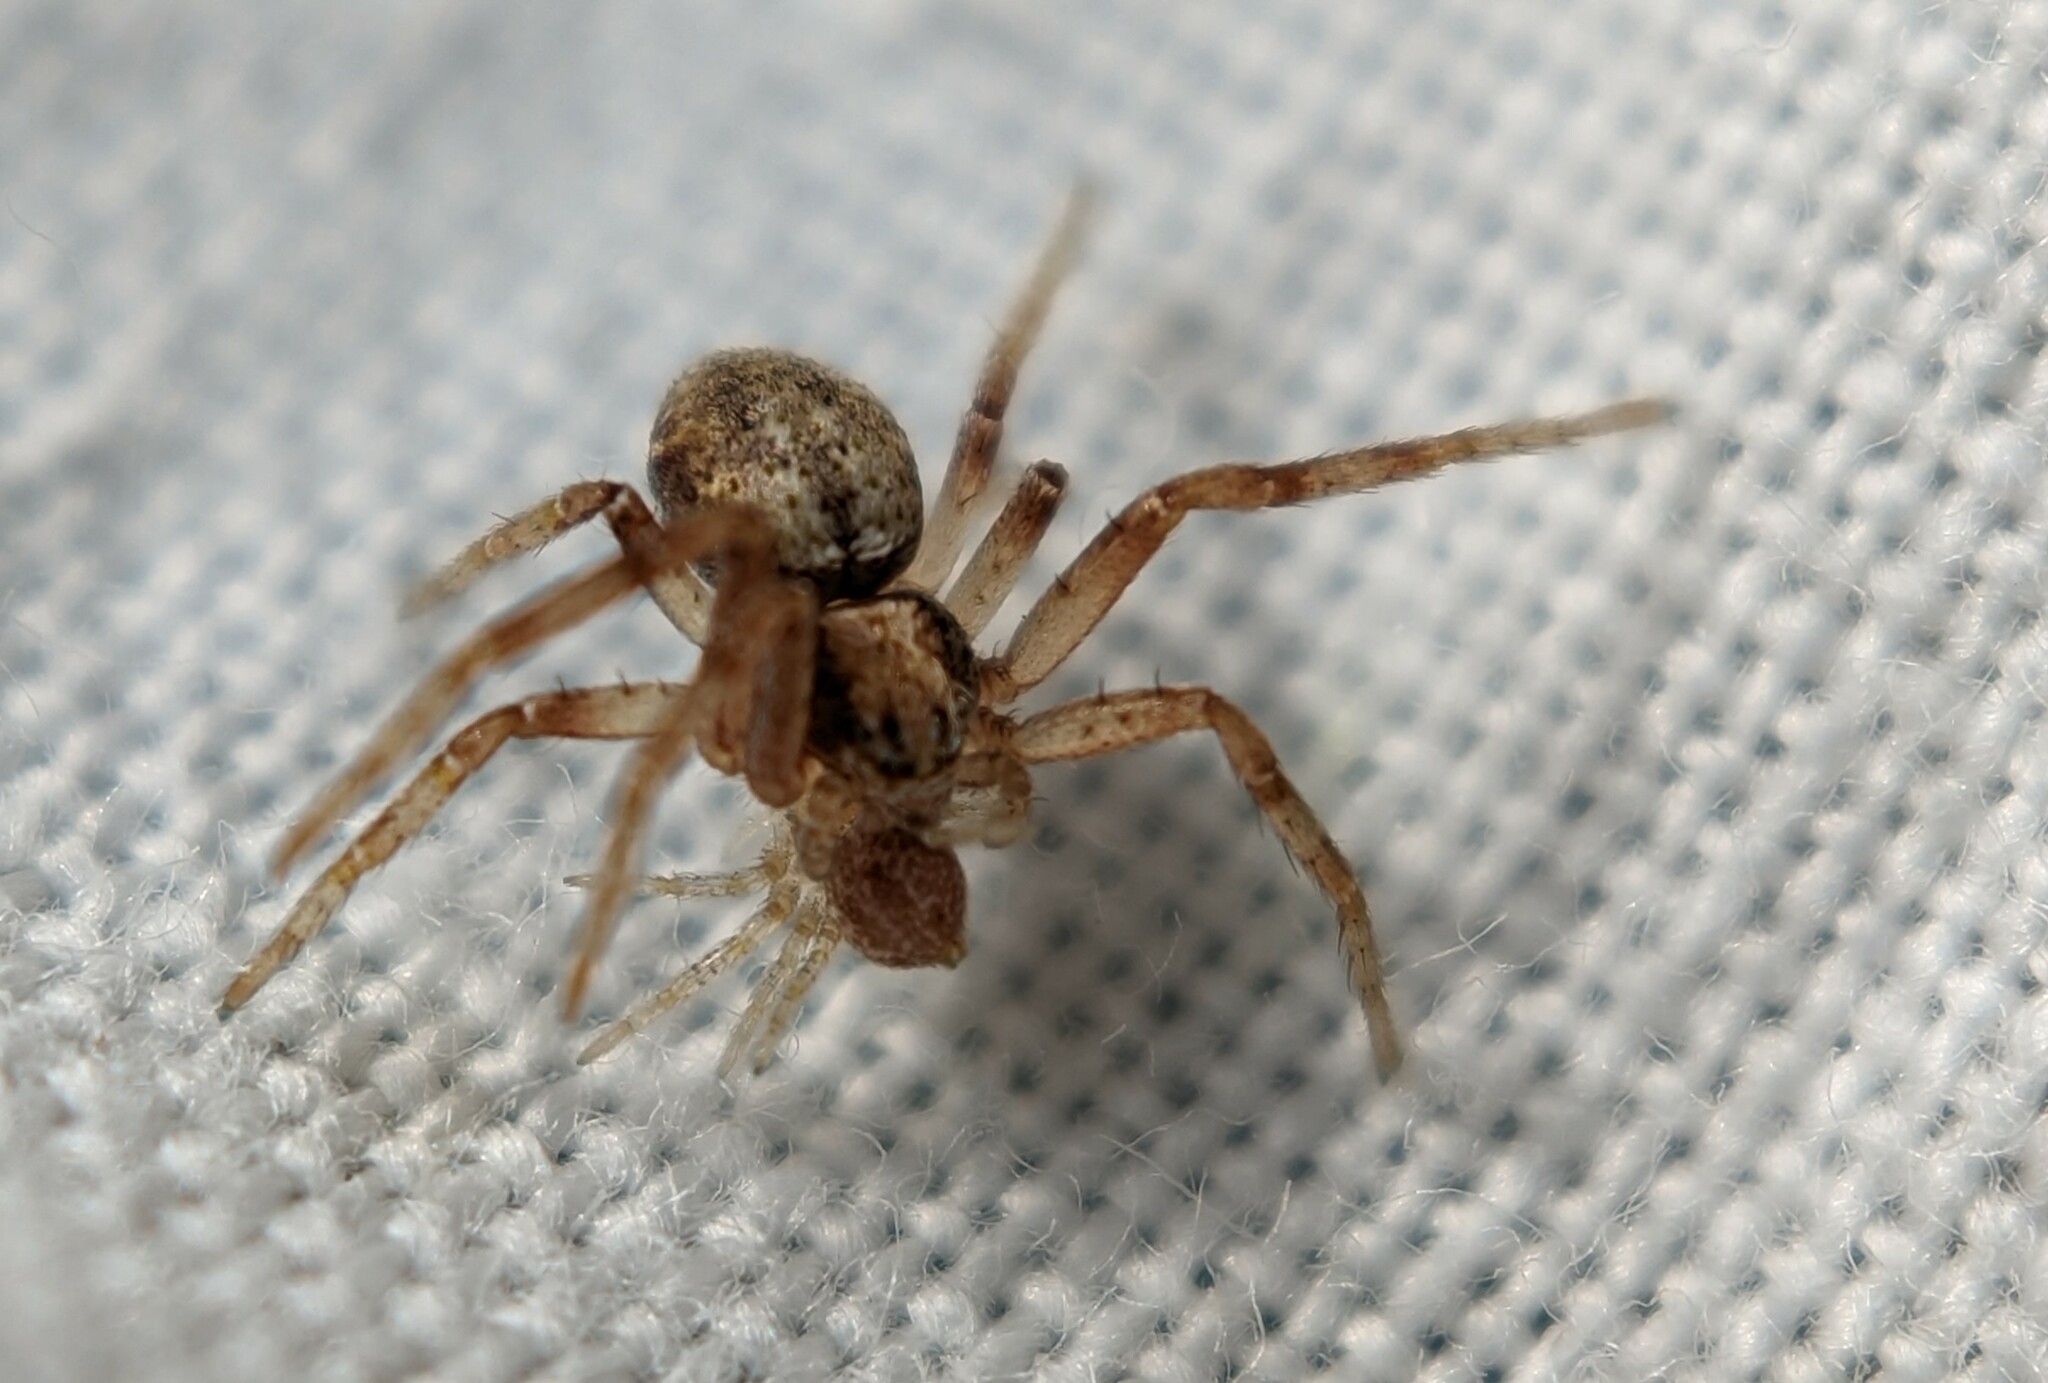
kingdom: Animalia
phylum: Arthropoda
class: Arachnida
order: Araneae
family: Philodromidae
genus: Philodromus
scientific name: Philodromus
